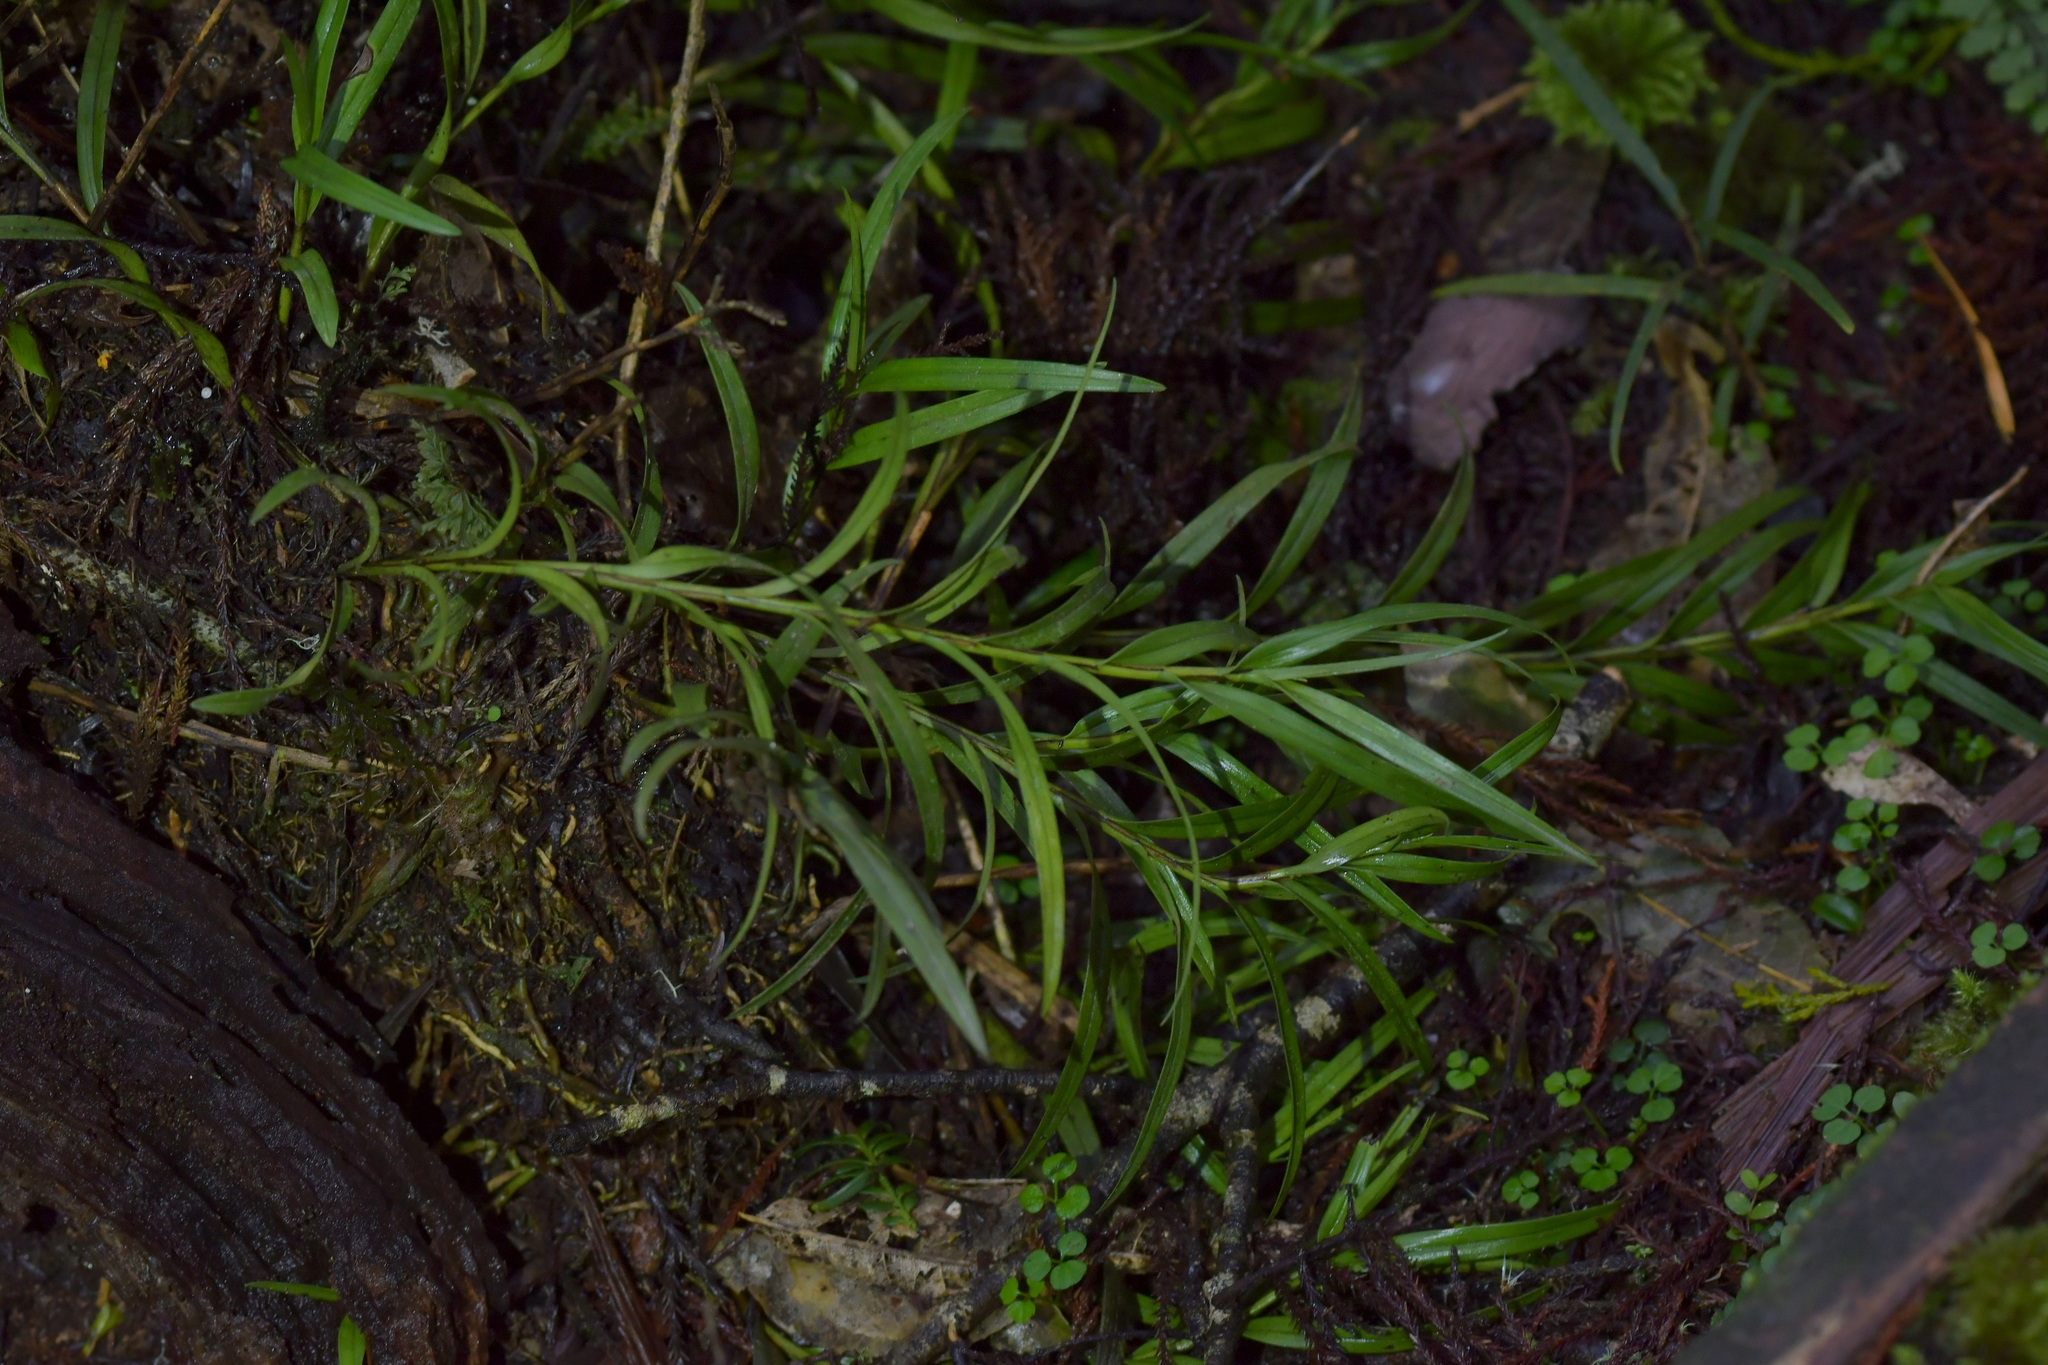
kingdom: Plantae
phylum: Tracheophyta
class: Liliopsida
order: Asparagales
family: Orchidaceae
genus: Earina
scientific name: Earina autumnalis
